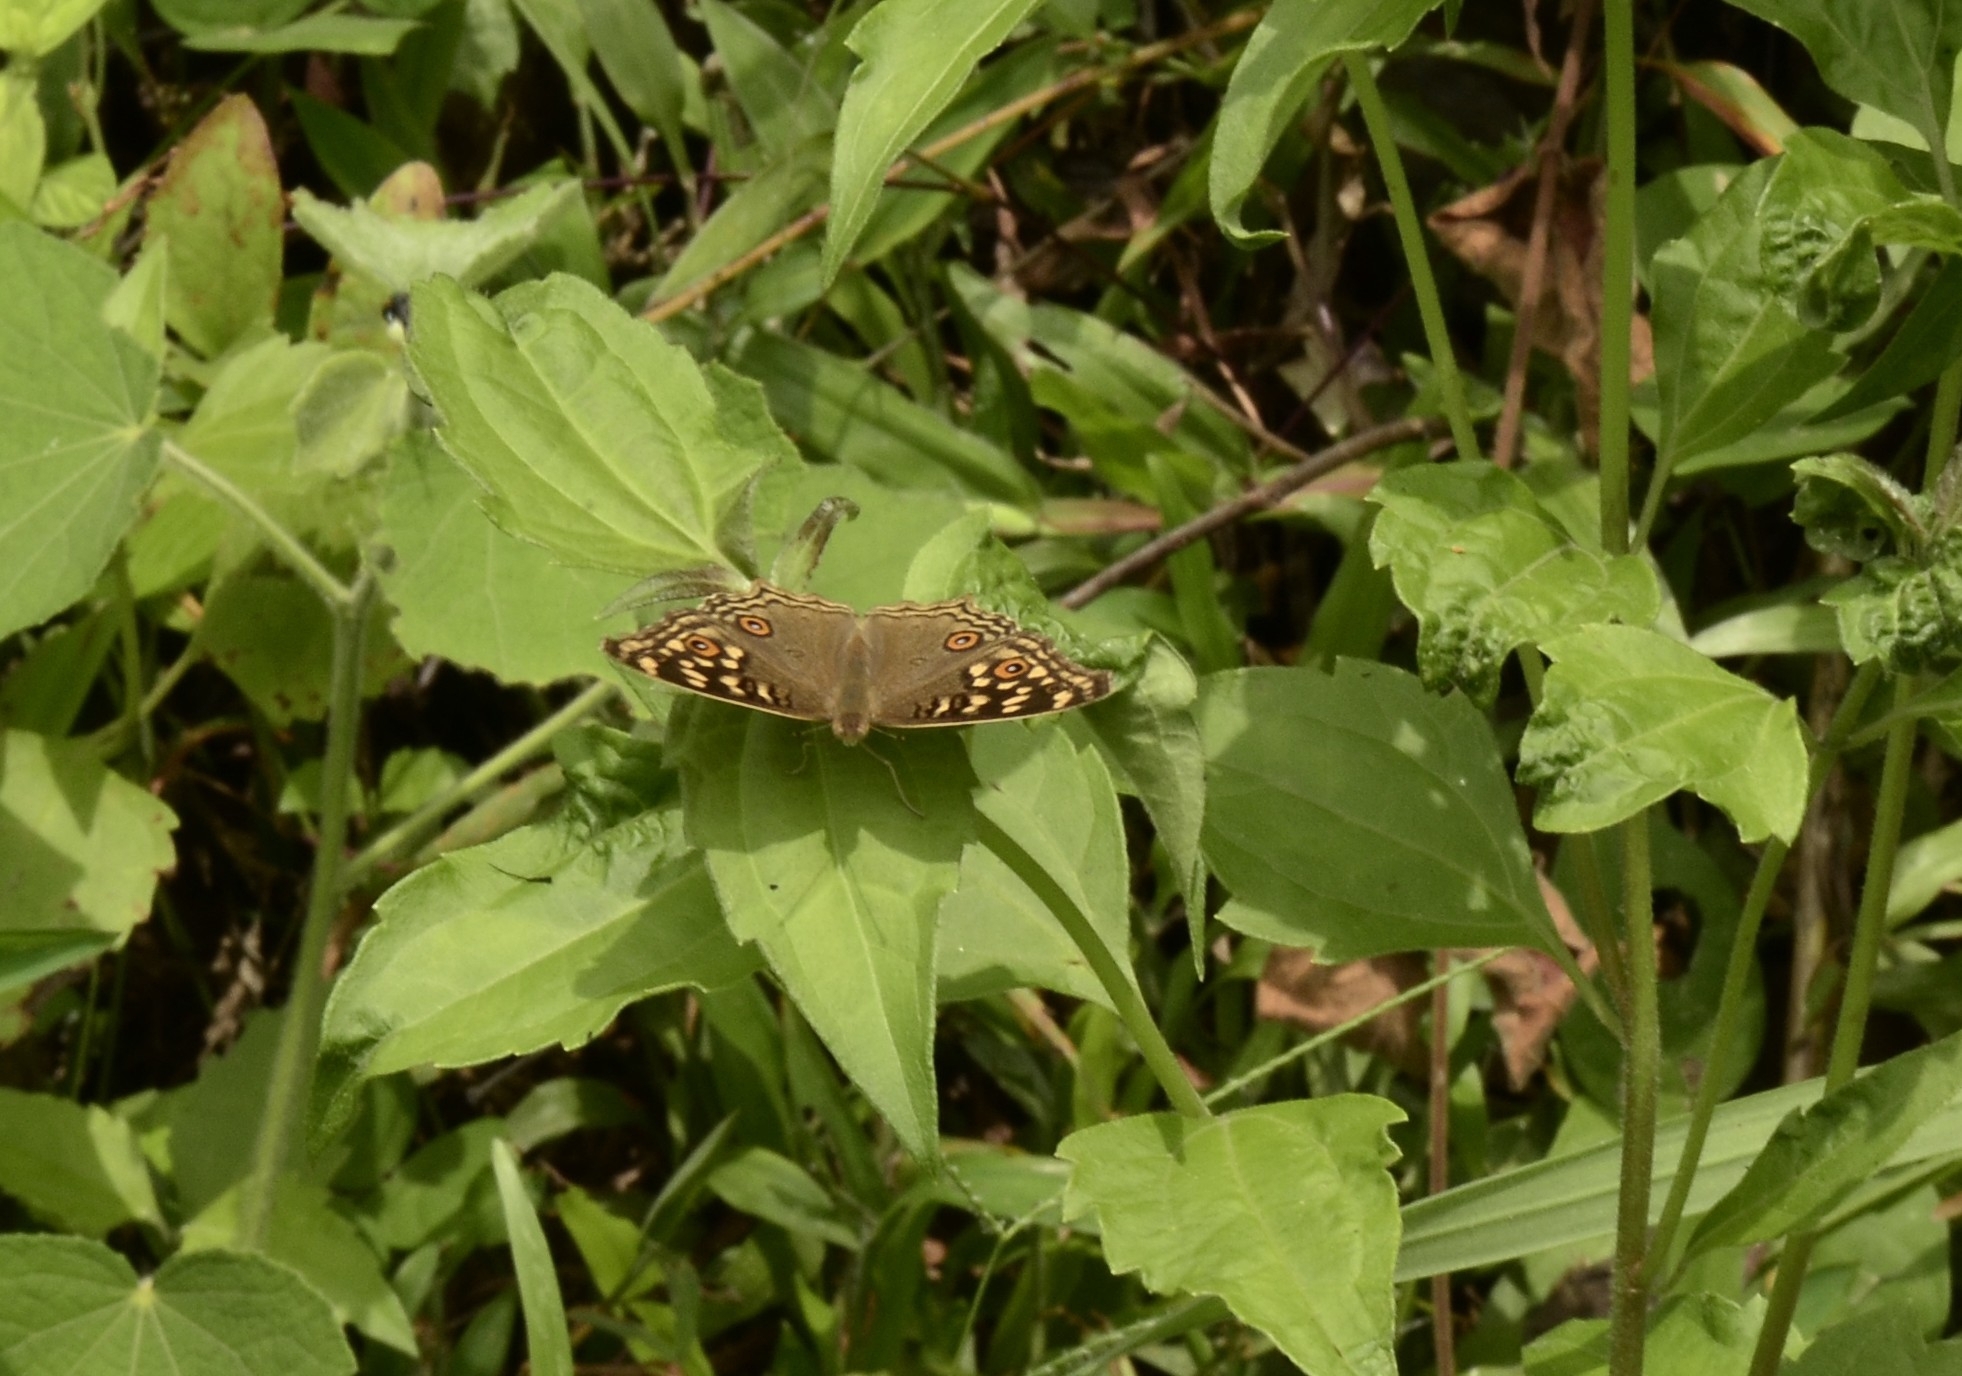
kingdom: Animalia
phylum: Arthropoda
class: Insecta
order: Lepidoptera
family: Nymphalidae
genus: Junonia
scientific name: Junonia lemonias
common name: Lemon pansy
